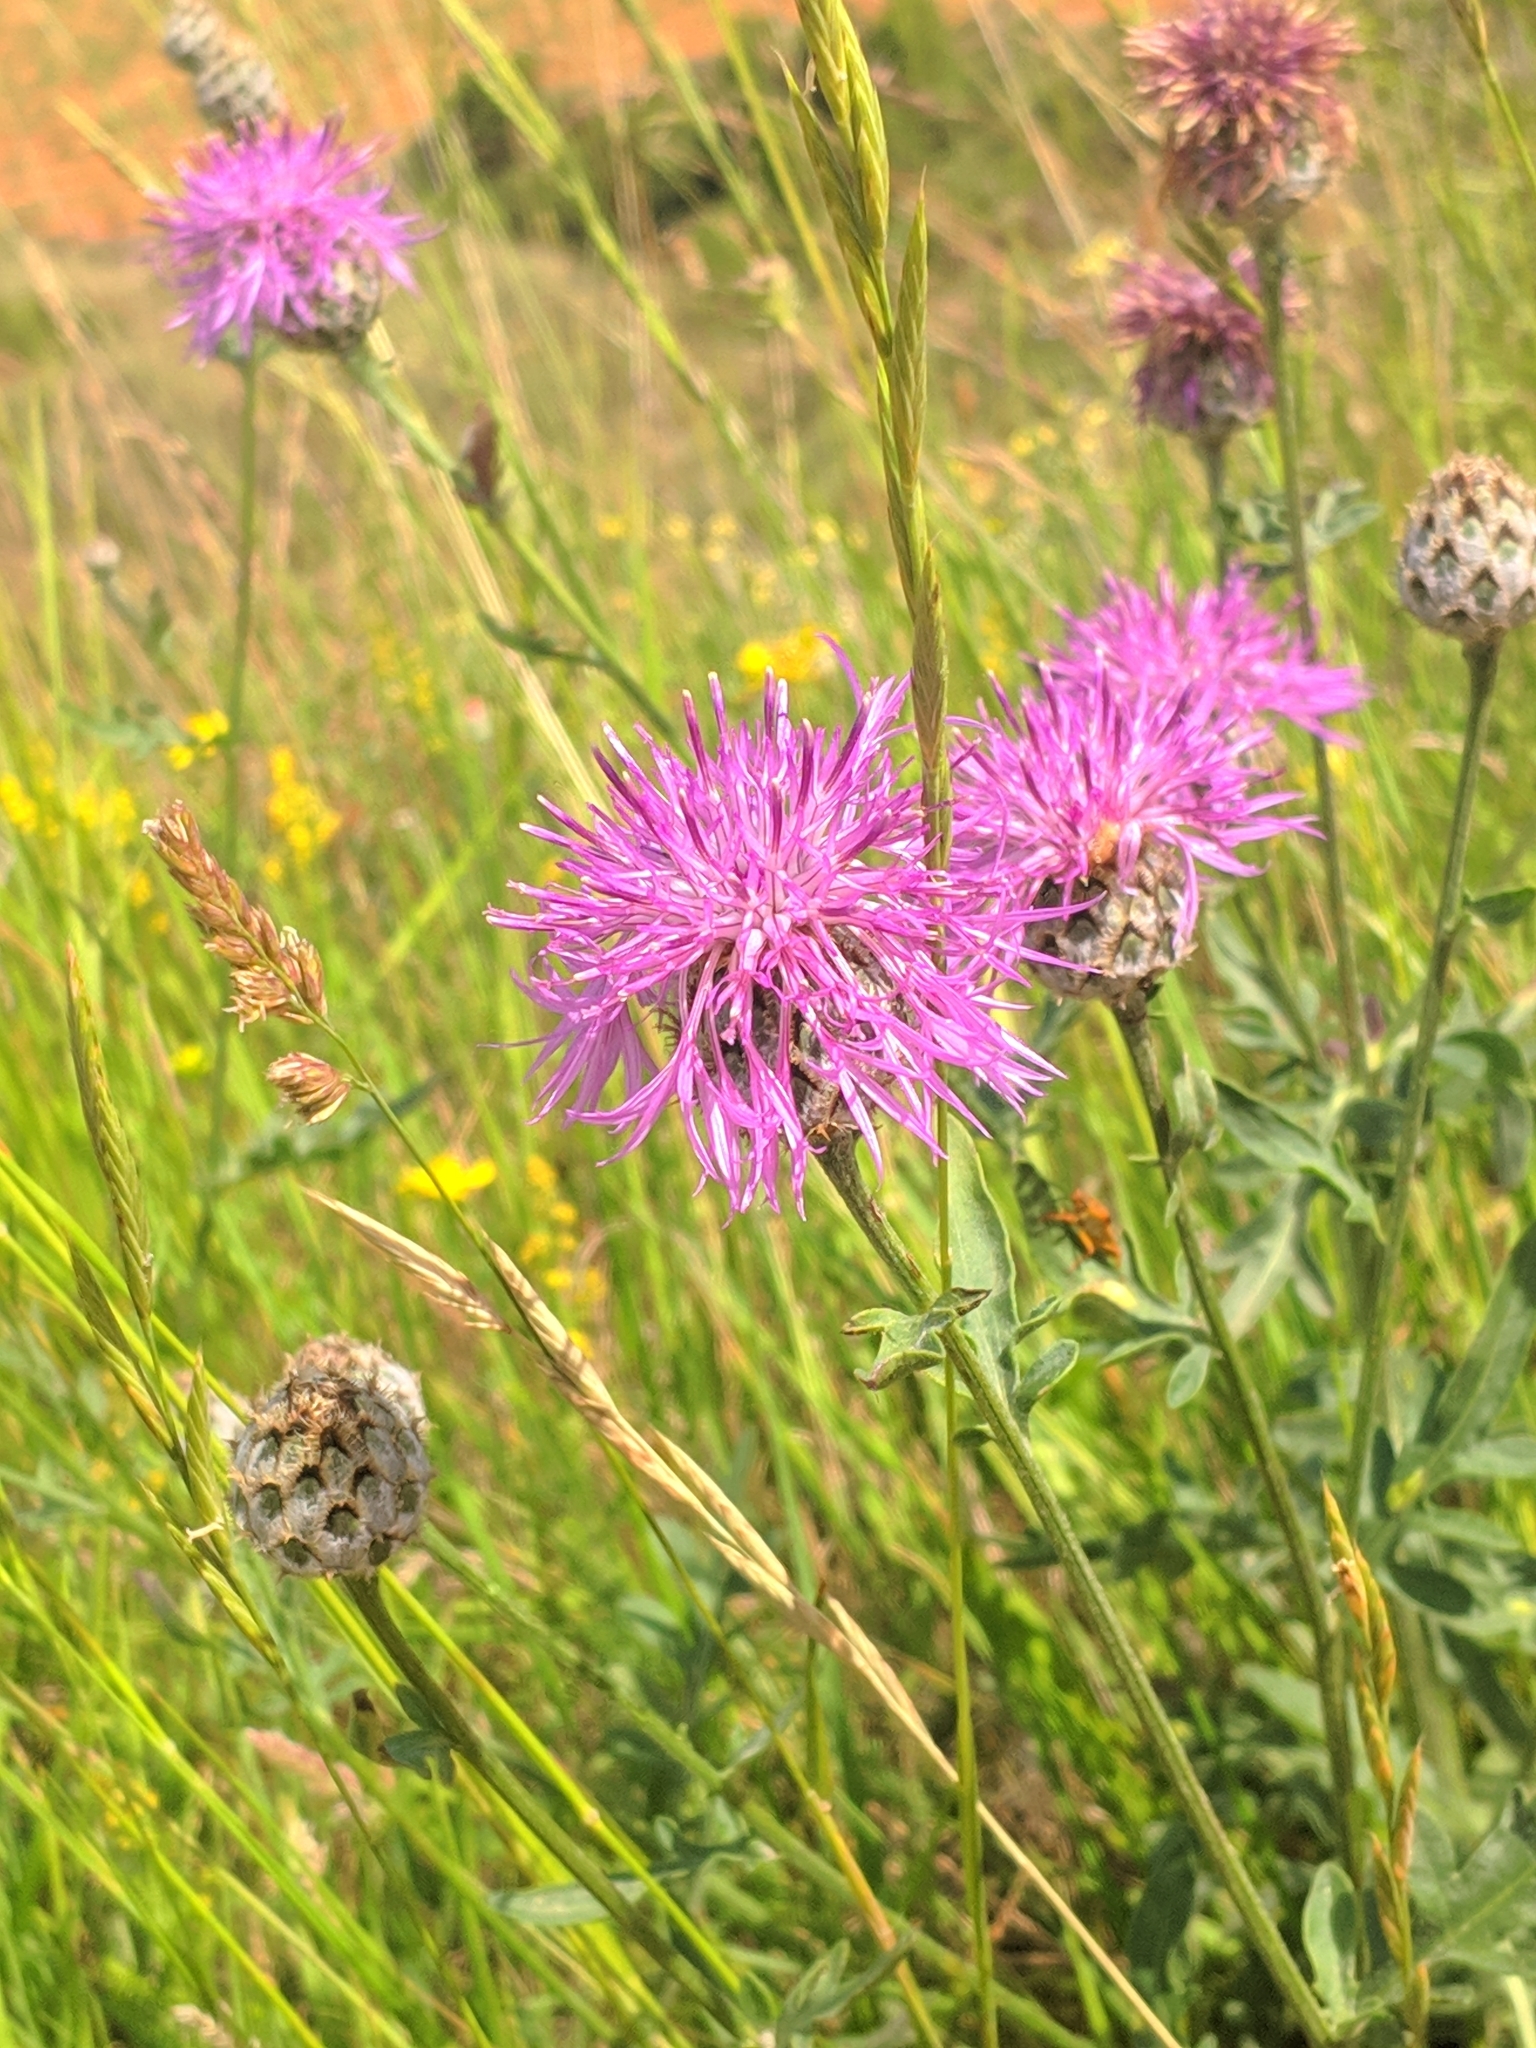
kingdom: Plantae
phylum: Tracheophyta
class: Magnoliopsida
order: Asterales
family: Asteraceae
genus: Centaurea
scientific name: Centaurea scabiosa
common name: Greater knapweed
